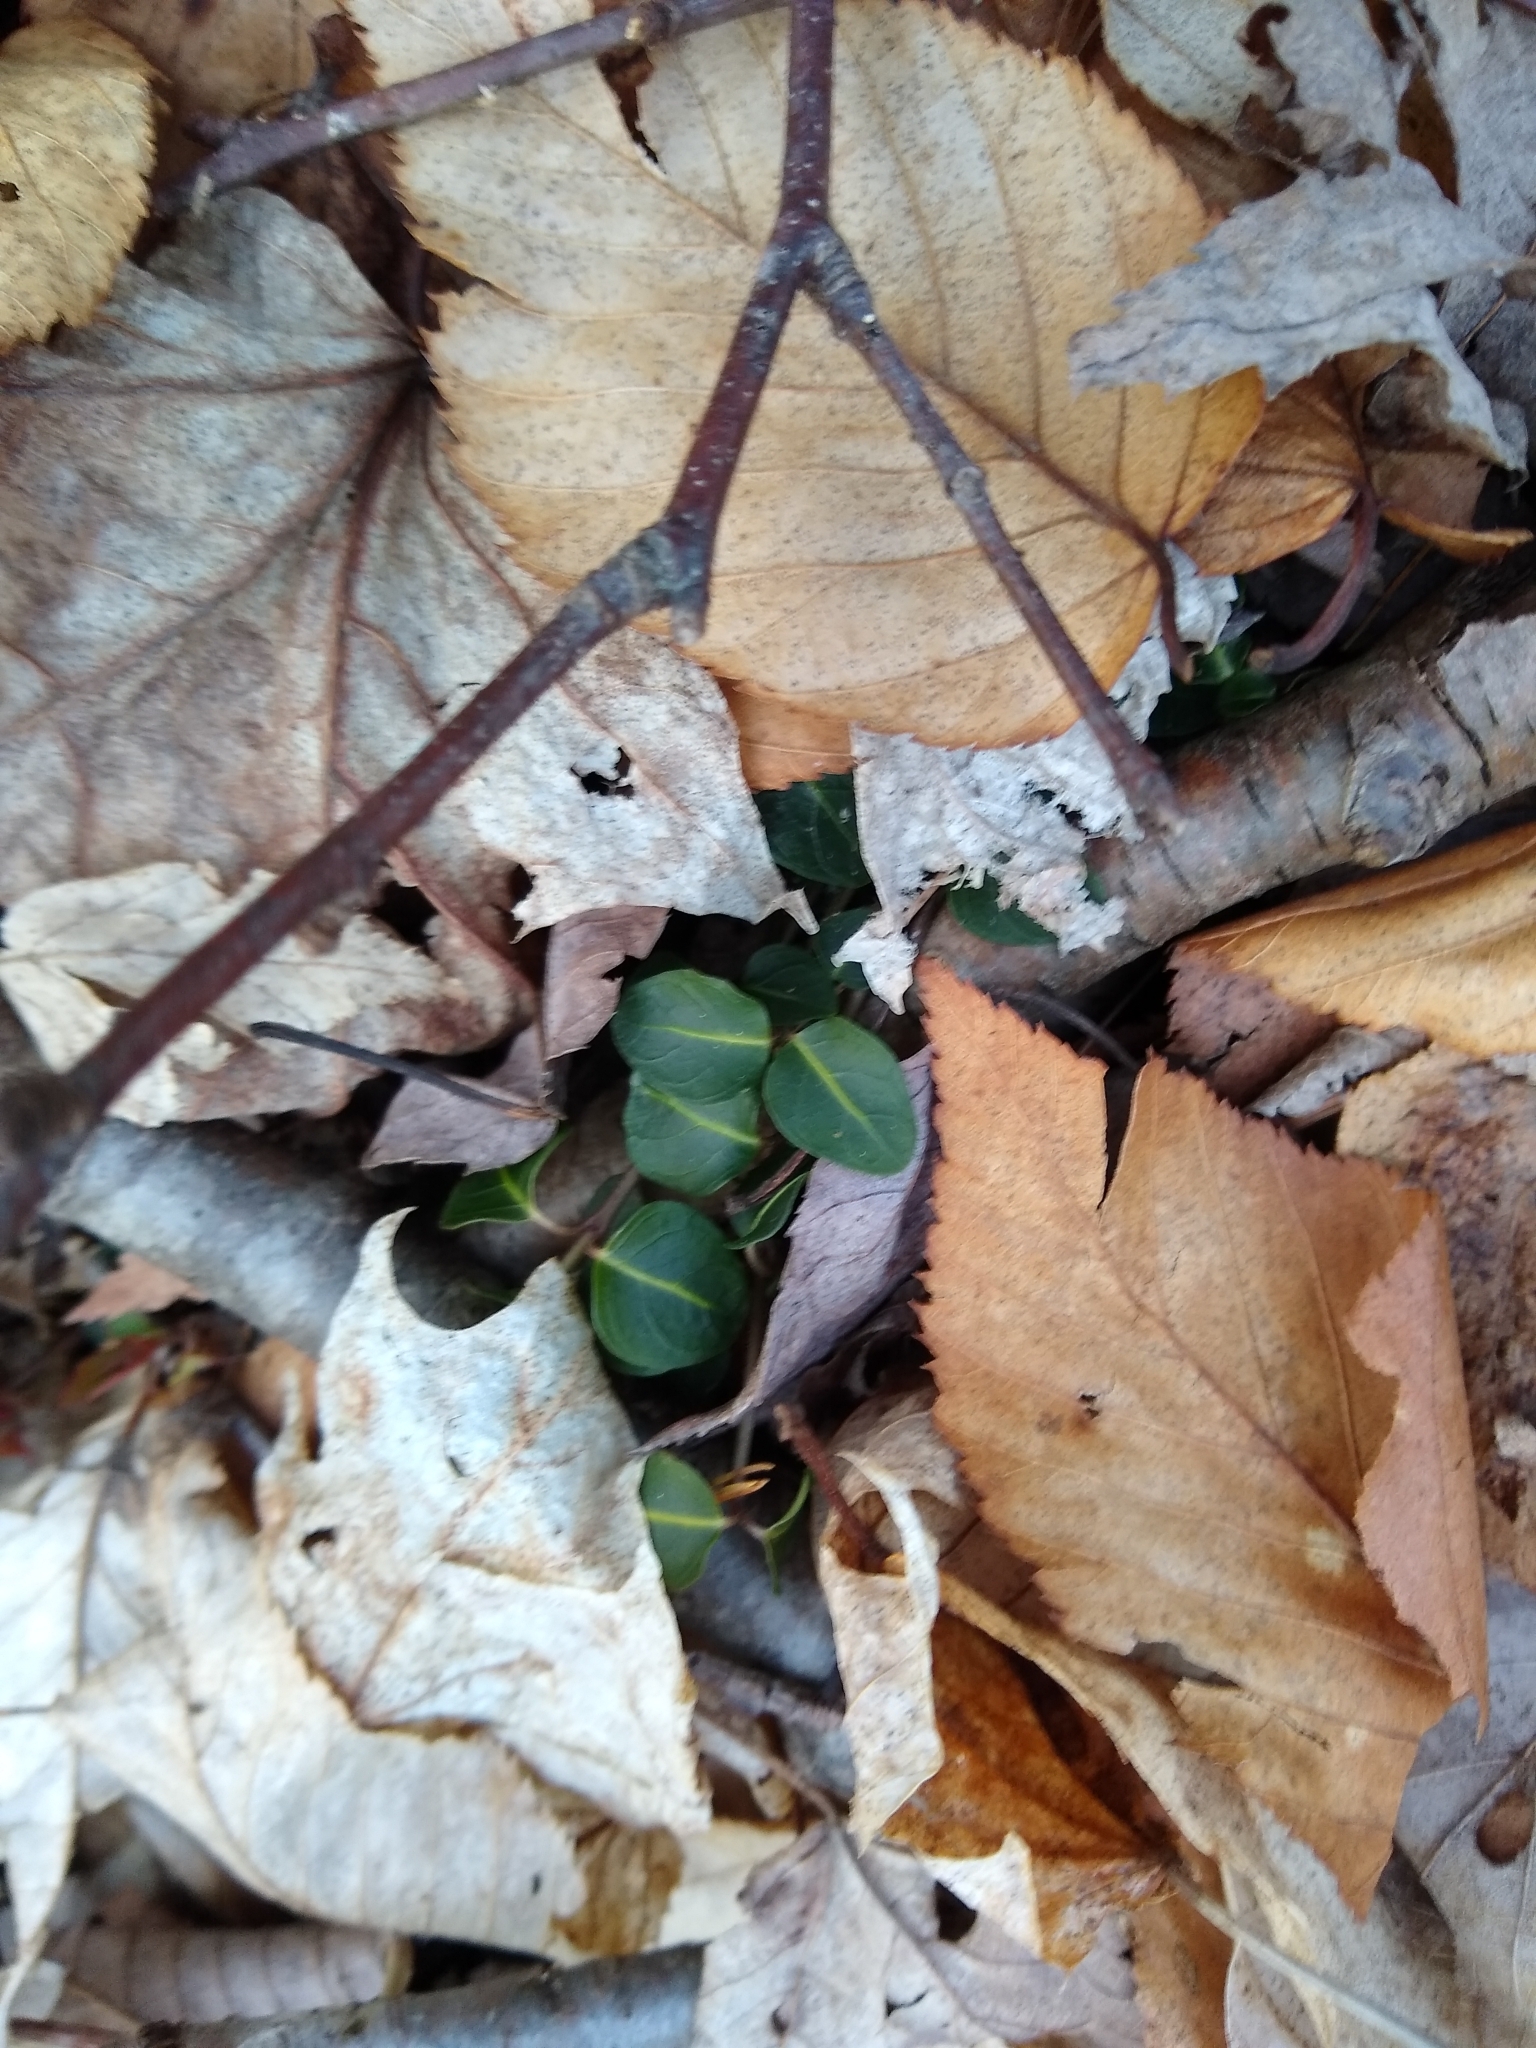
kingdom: Plantae
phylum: Tracheophyta
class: Magnoliopsida
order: Gentianales
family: Rubiaceae
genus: Mitchella
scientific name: Mitchella repens
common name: Partridge-berry
